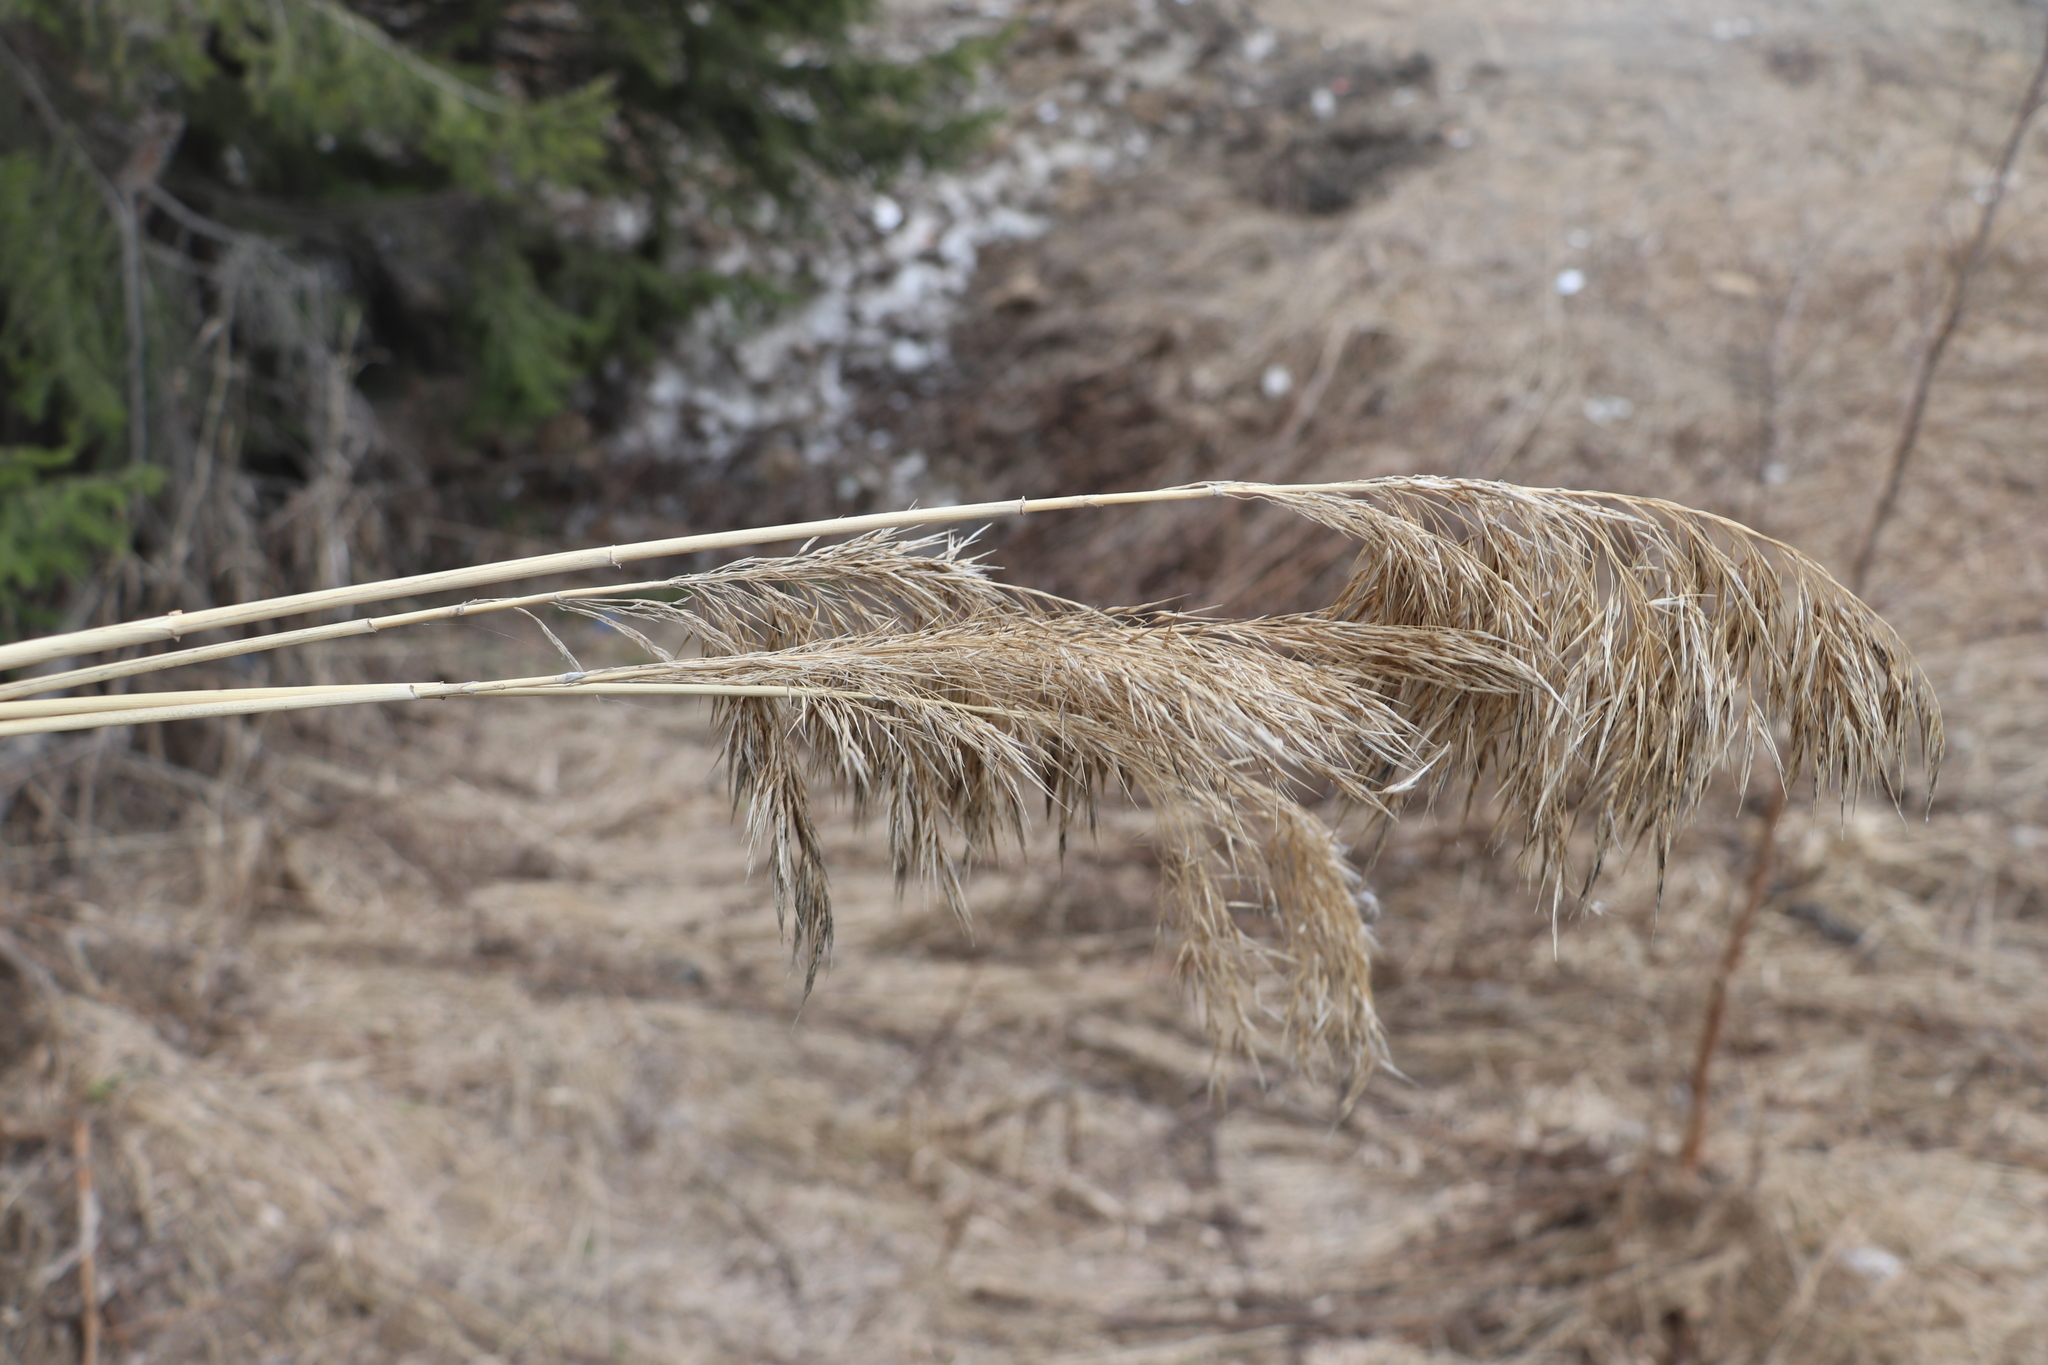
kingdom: Plantae
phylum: Tracheophyta
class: Liliopsida
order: Poales
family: Poaceae
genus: Phragmites
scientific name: Phragmites australis
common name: Common reed
